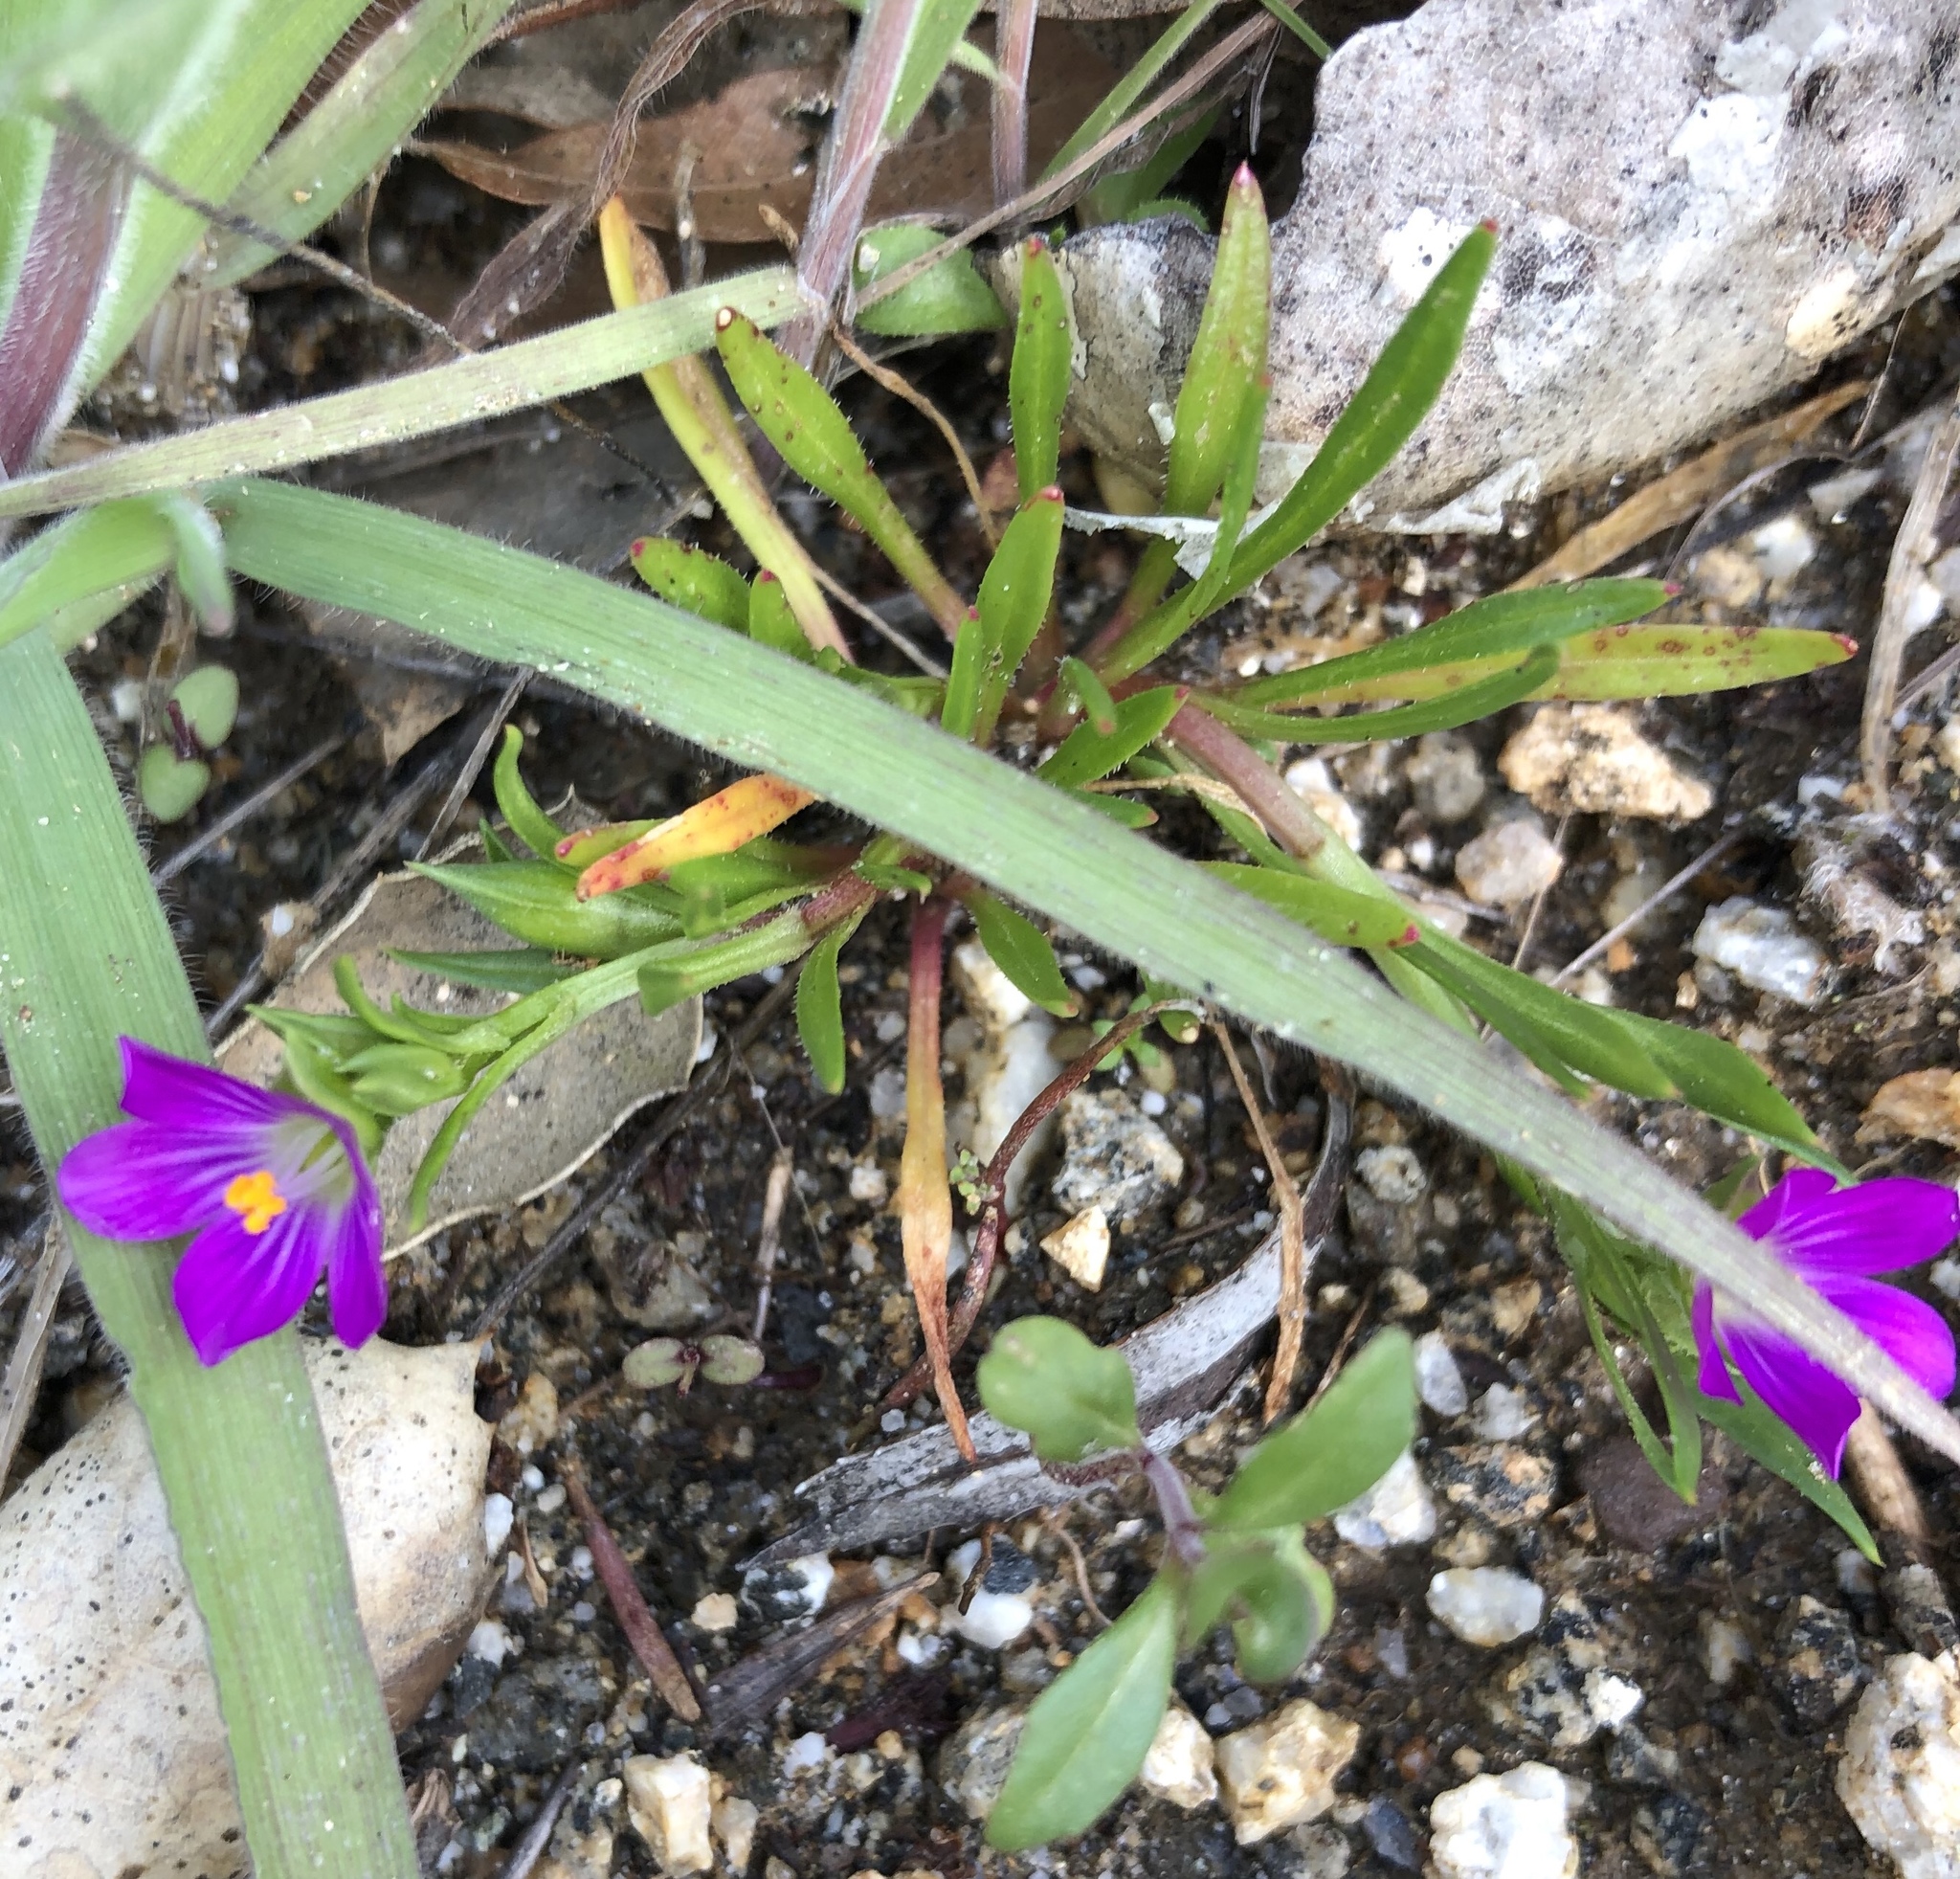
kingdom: Plantae
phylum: Tracheophyta
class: Magnoliopsida
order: Caryophyllales
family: Montiaceae
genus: Calandrinia
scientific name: Calandrinia menziesii
